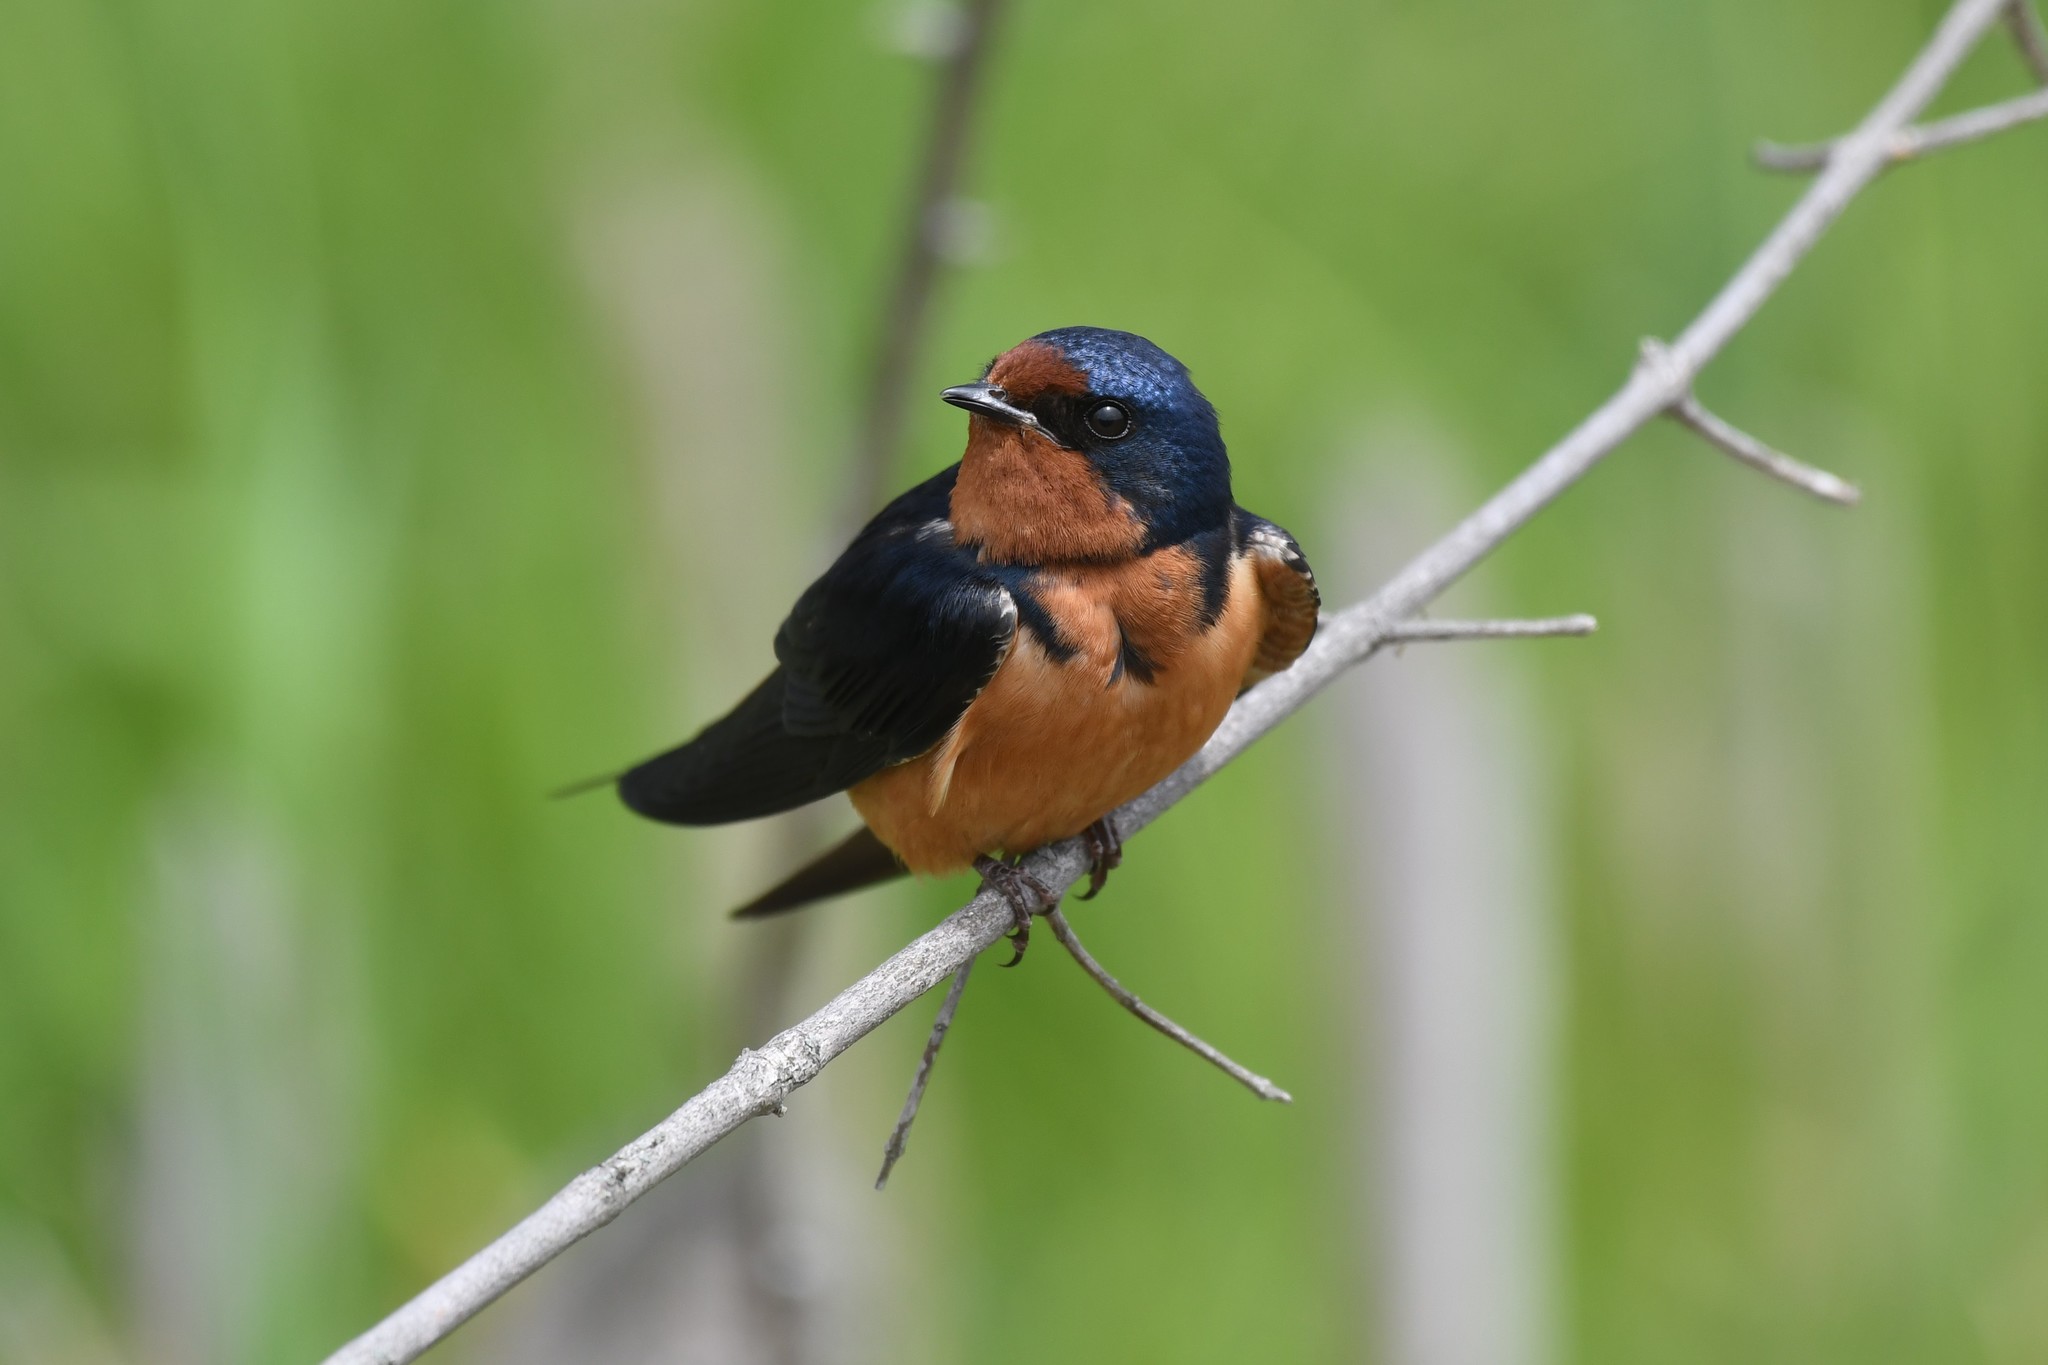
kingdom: Animalia
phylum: Chordata
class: Aves
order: Passeriformes
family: Hirundinidae
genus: Hirundo
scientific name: Hirundo rustica
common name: Barn swallow
